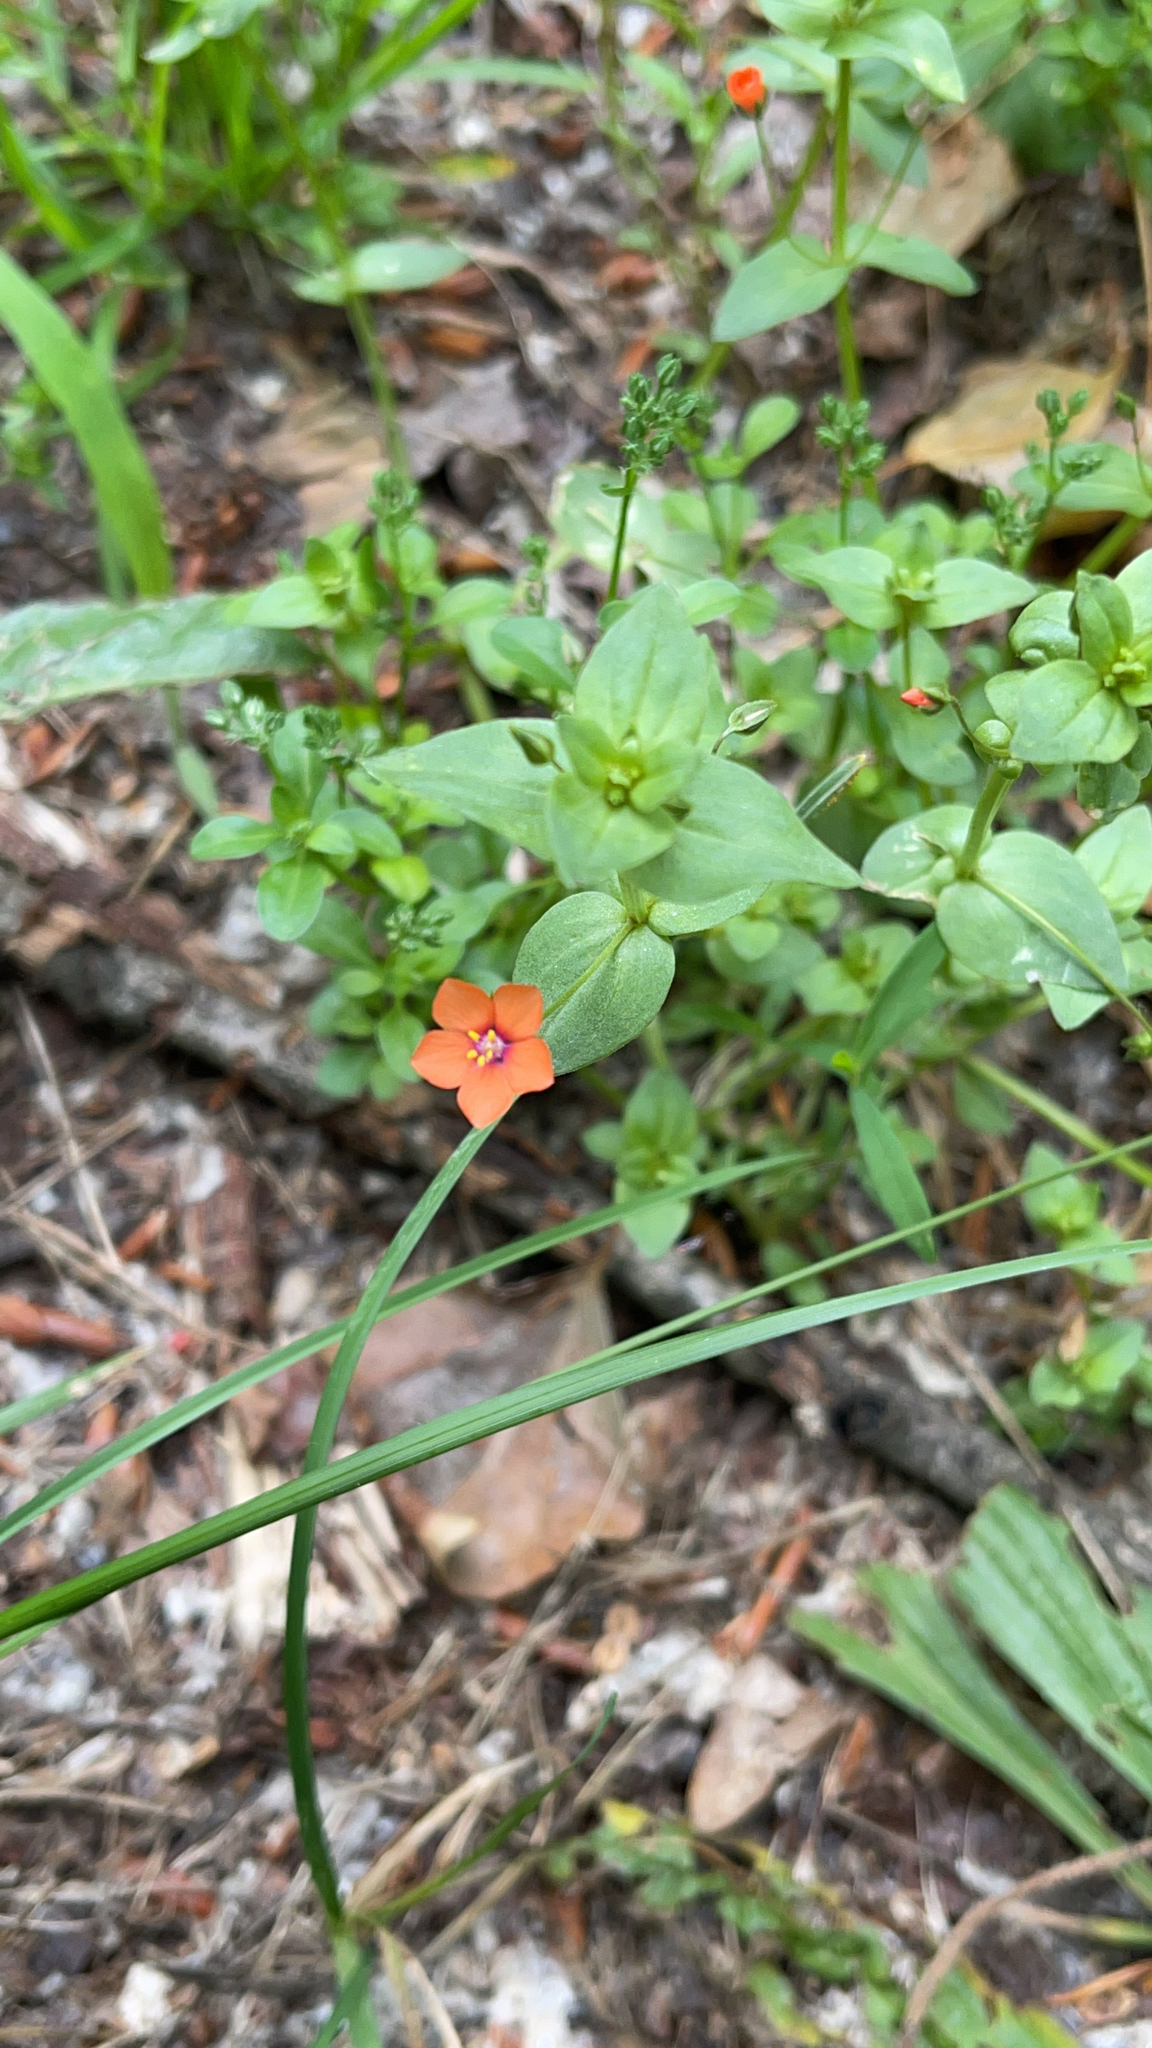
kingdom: Plantae
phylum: Tracheophyta
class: Magnoliopsida
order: Ericales
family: Primulaceae
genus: Lysimachia
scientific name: Lysimachia arvensis
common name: Scarlet pimpernel
